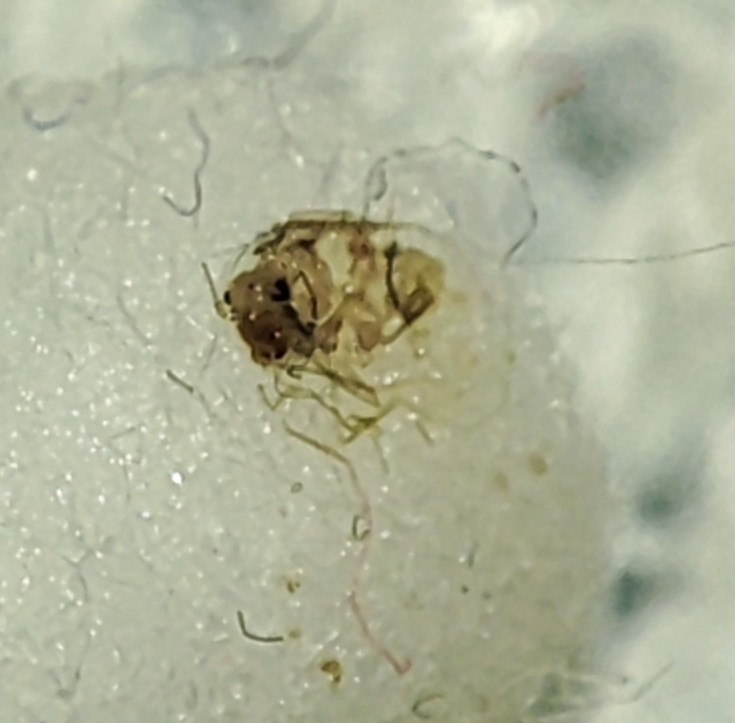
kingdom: Animalia
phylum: Arthropoda
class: Insecta
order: Psocodea
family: Psyllipsocidae
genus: Dorypteryx
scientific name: Dorypteryx domestica
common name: Cave barklouse
